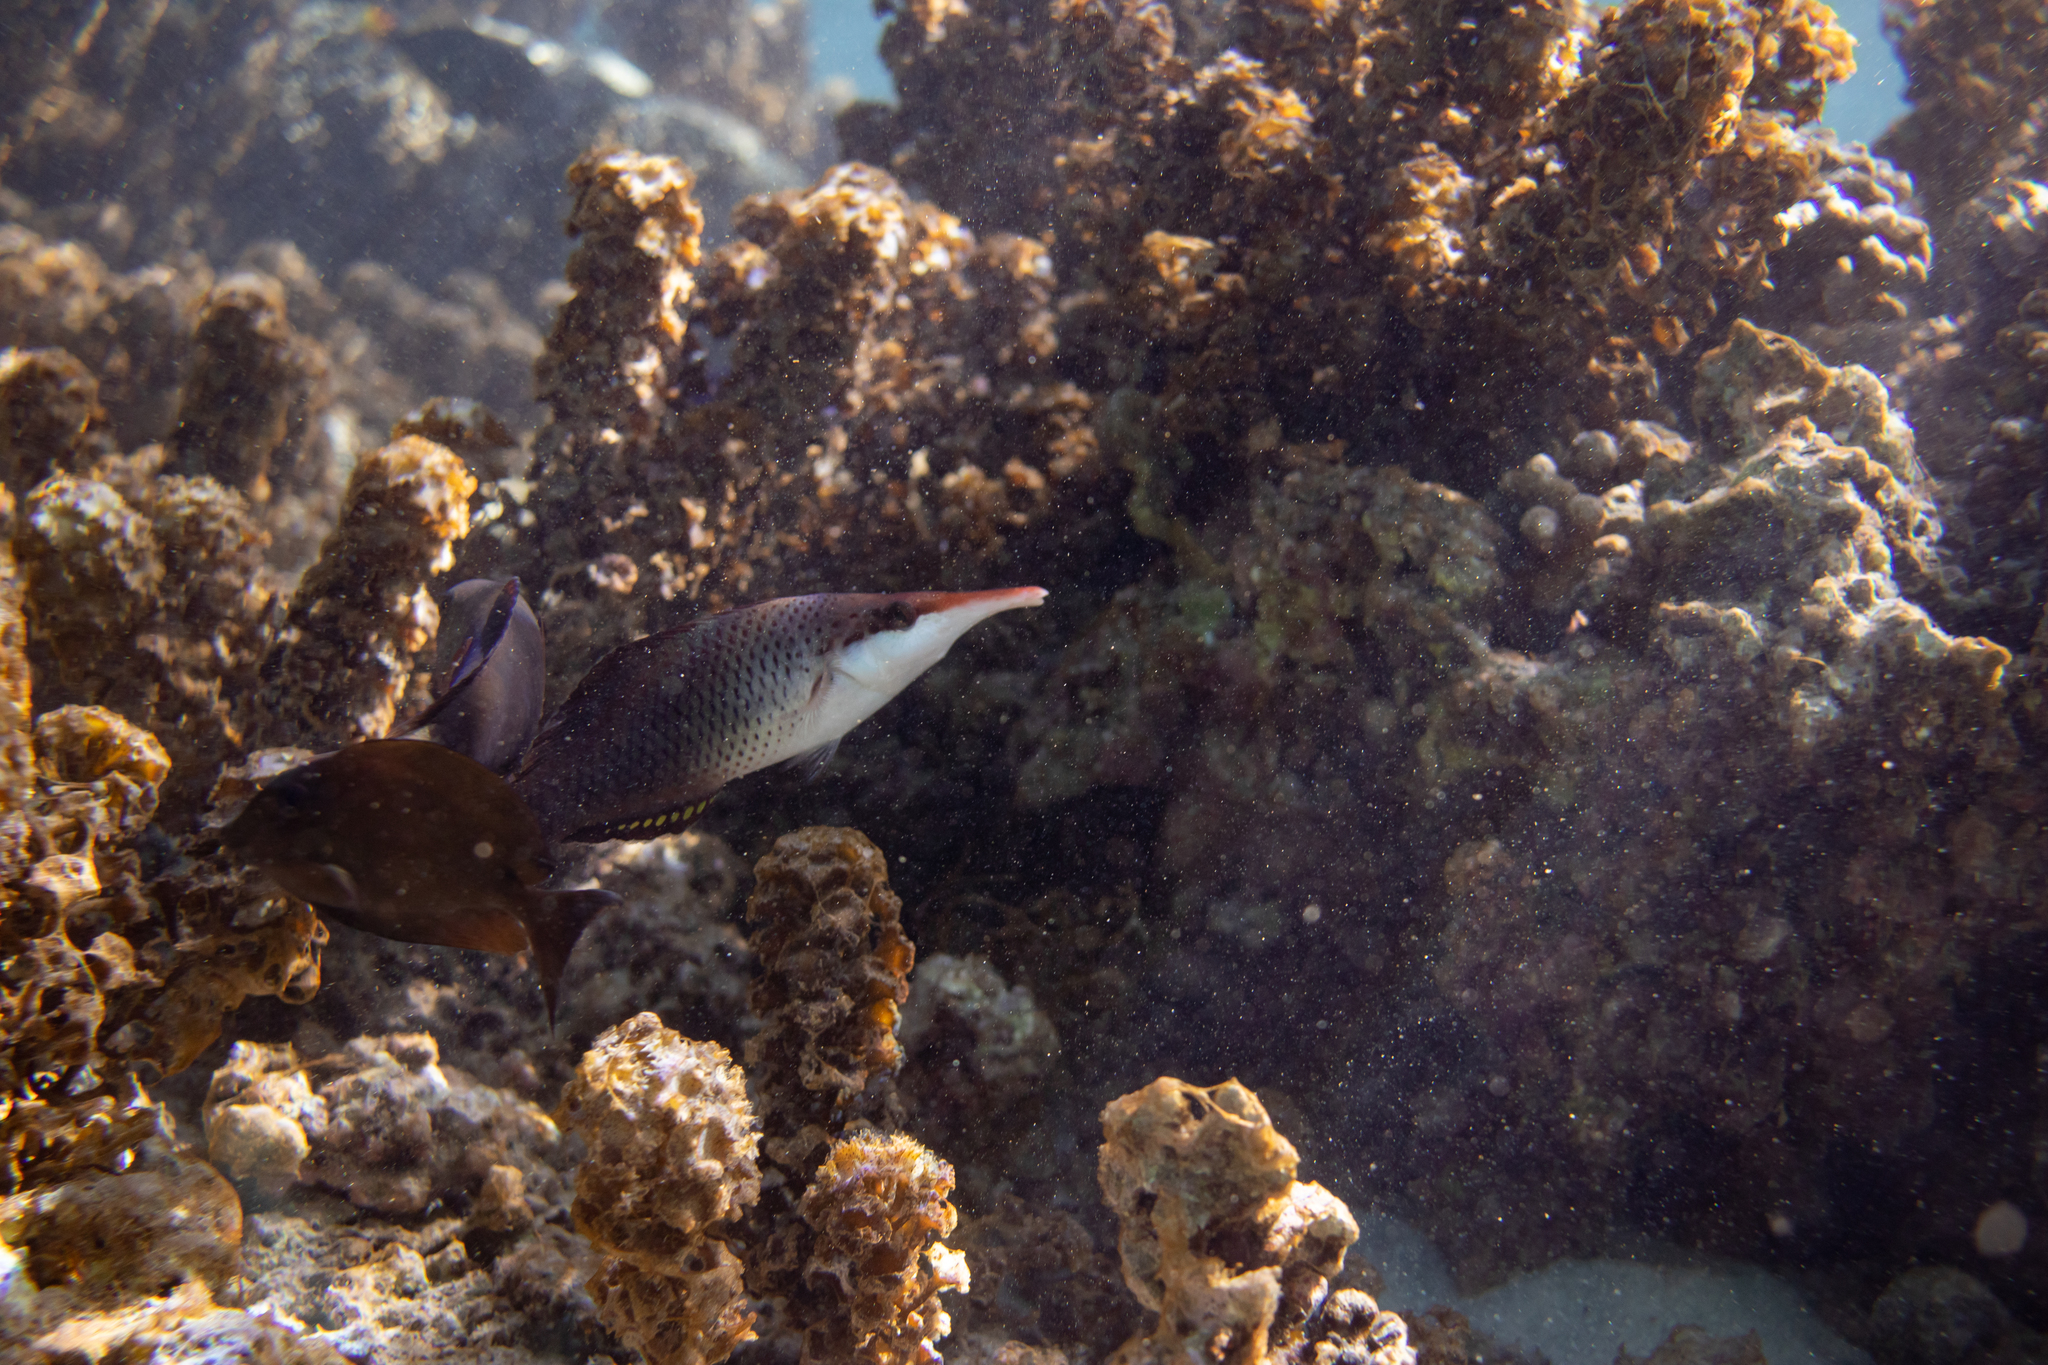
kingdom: Animalia
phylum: Chordata
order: Perciformes
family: Labridae
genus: Gomphosus
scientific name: Gomphosus varius
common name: Bird wrasse
